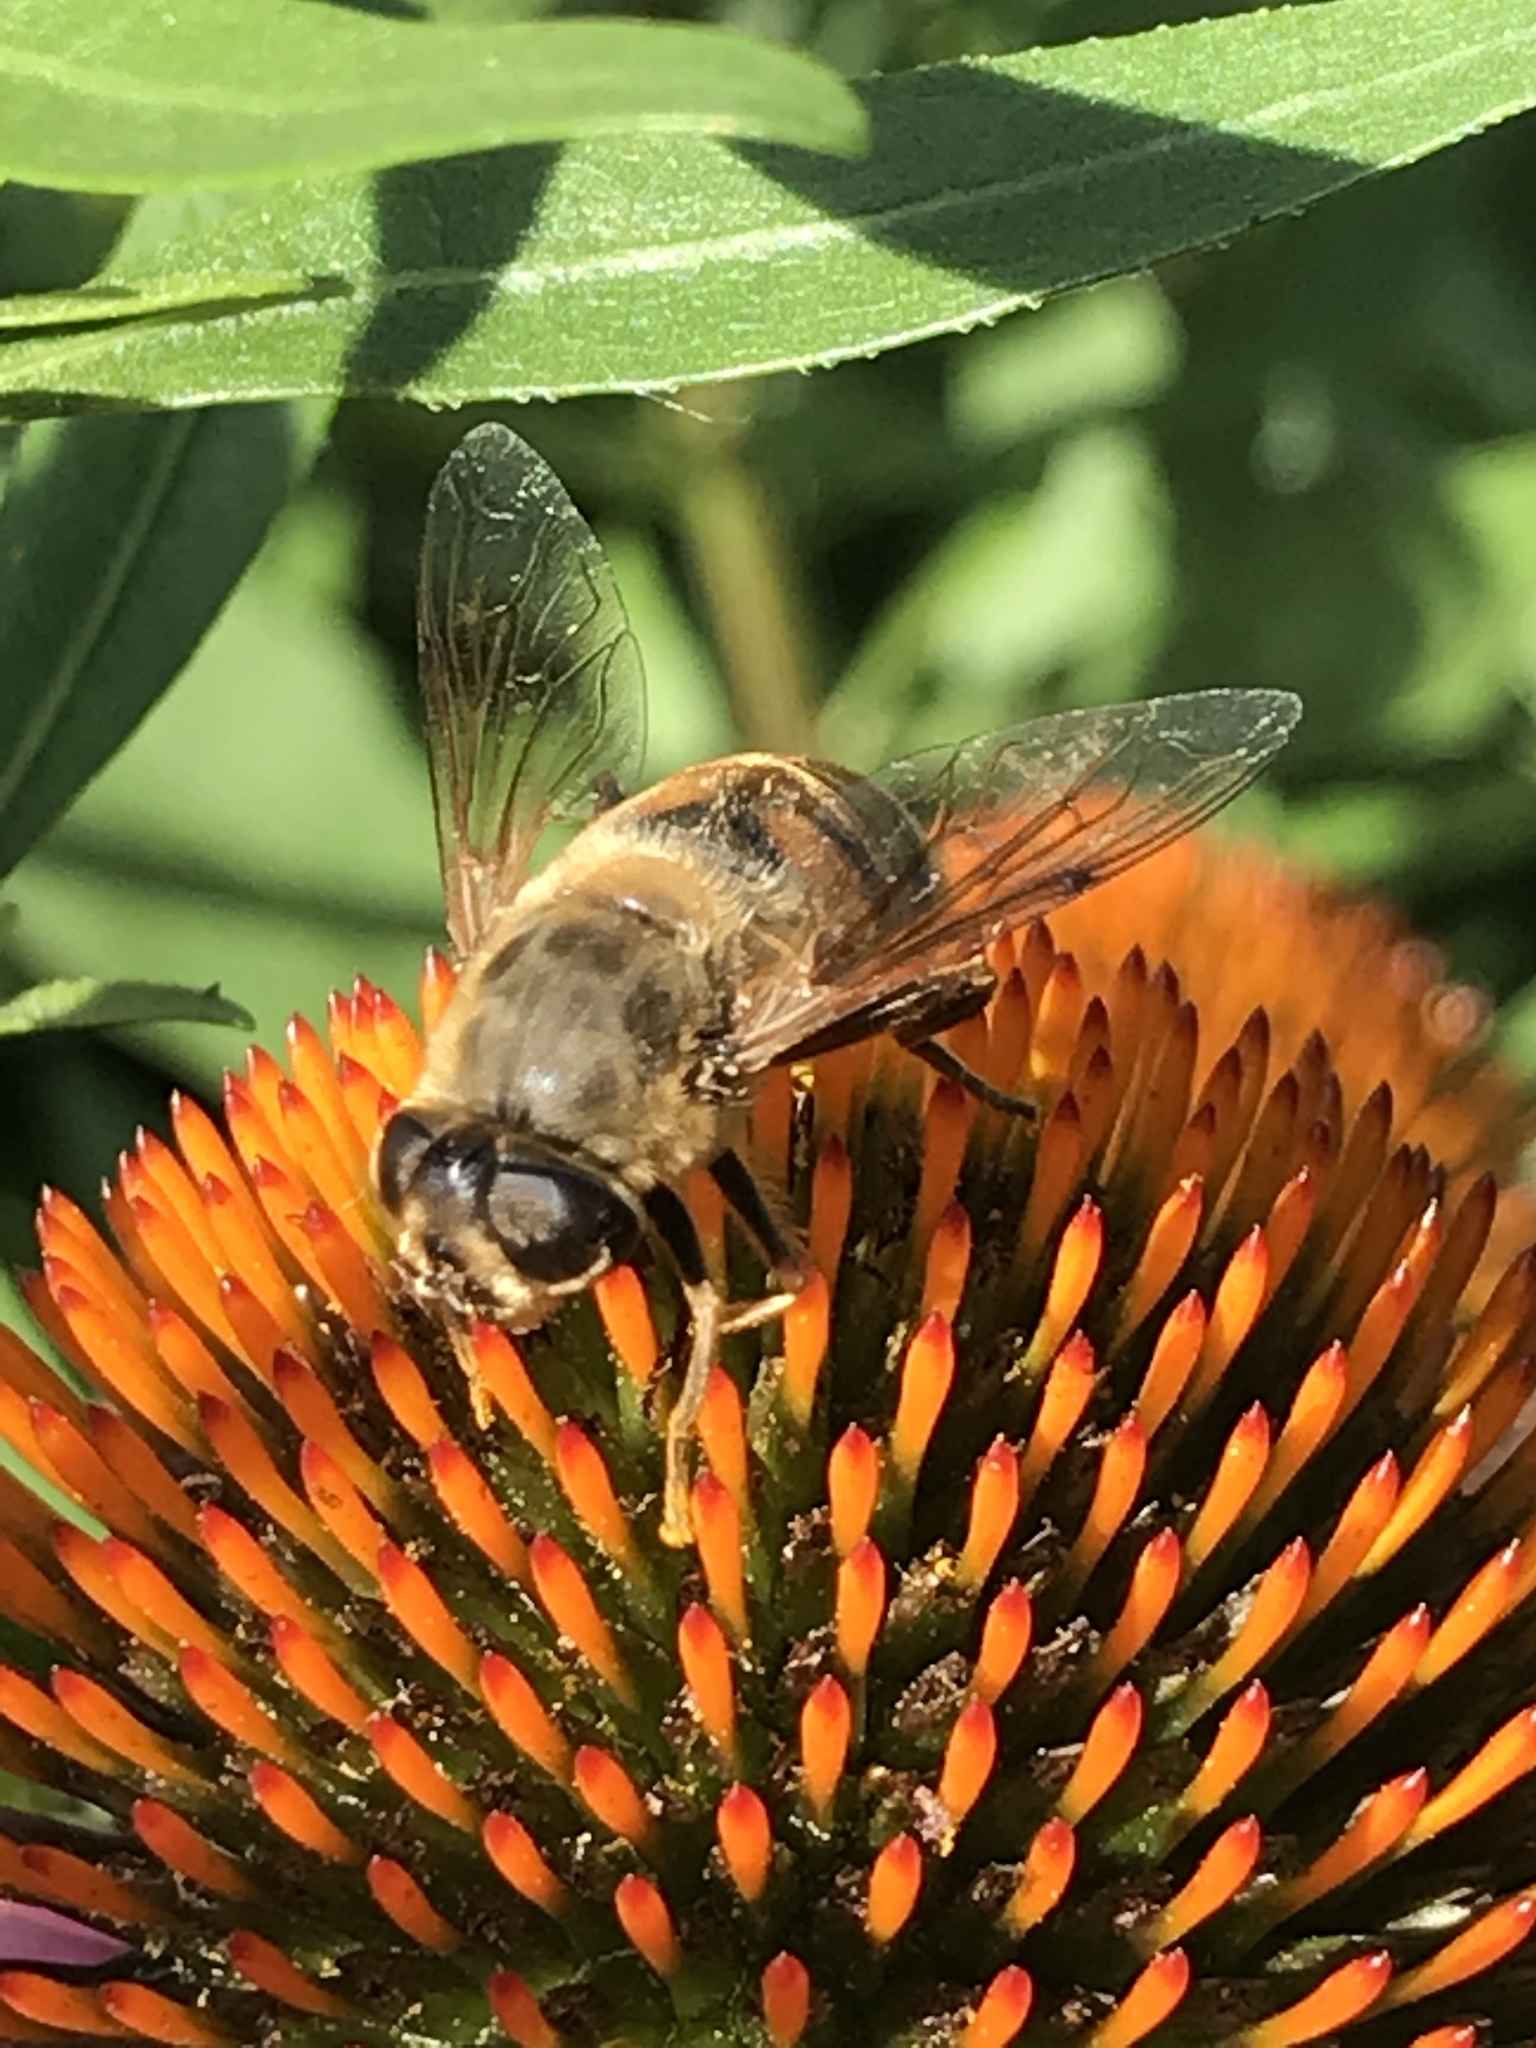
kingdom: Animalia
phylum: Arthropoda
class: Insecta
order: Diptera
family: Syrphidae
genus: Eristalis
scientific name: Eristalis tenax
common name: Drone fly
